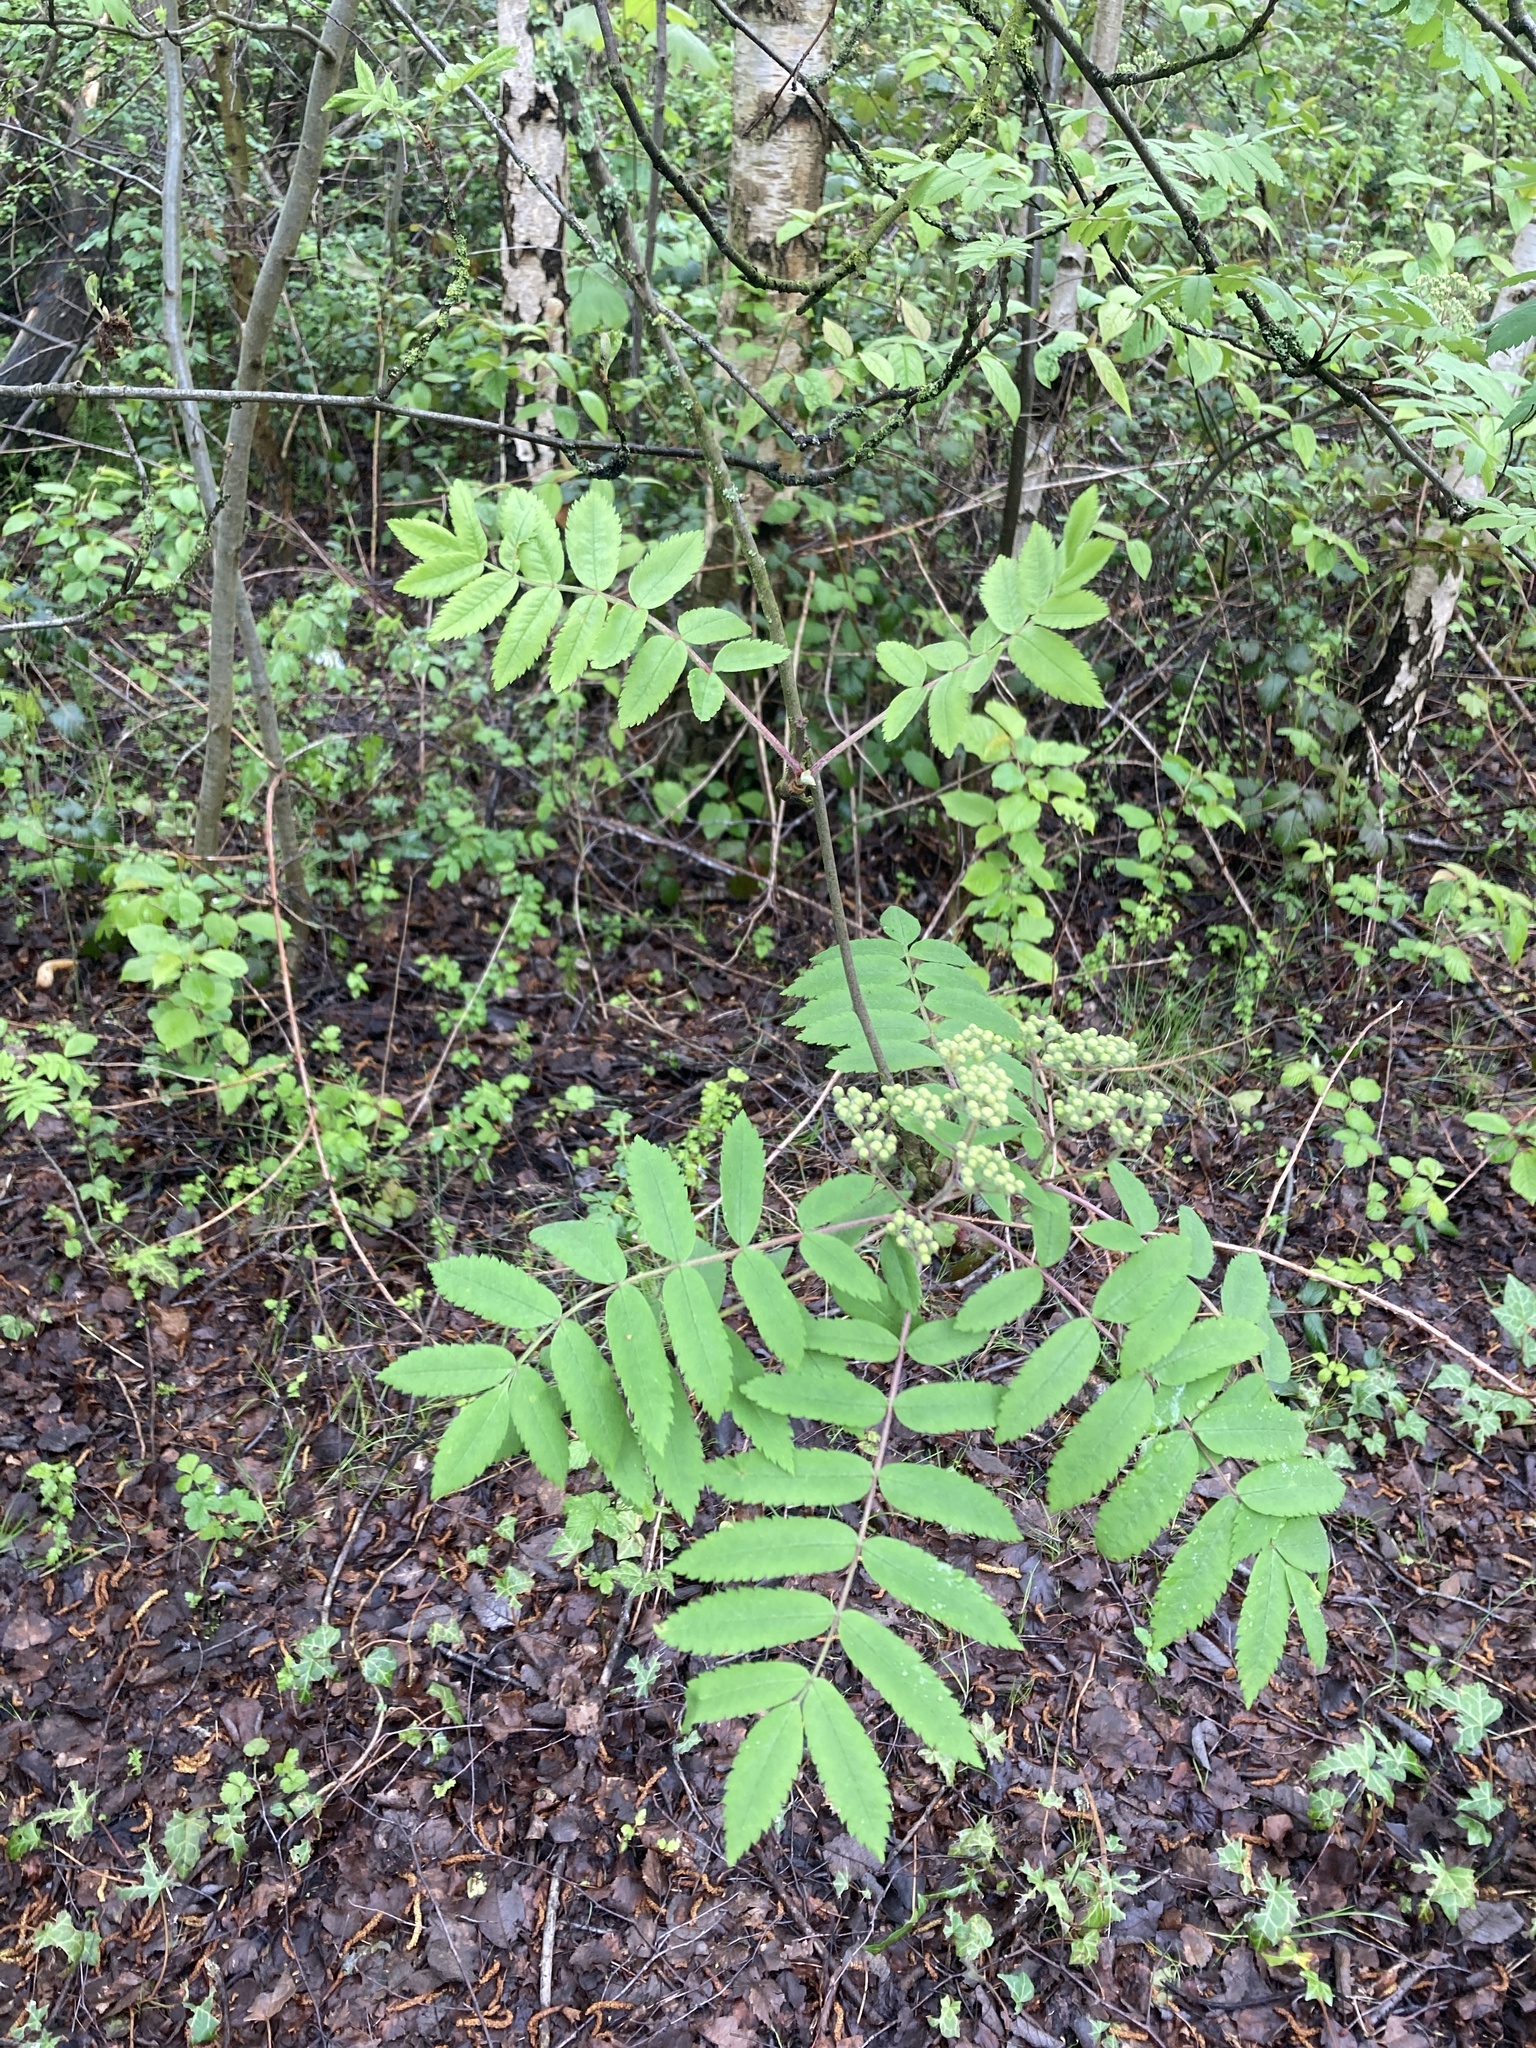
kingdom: Plantae
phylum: Tracheophyta
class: Magnoliopsida
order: Rosales
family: Rosaceae
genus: Sorbus
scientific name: Sorbus aucuparia
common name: Rowan
